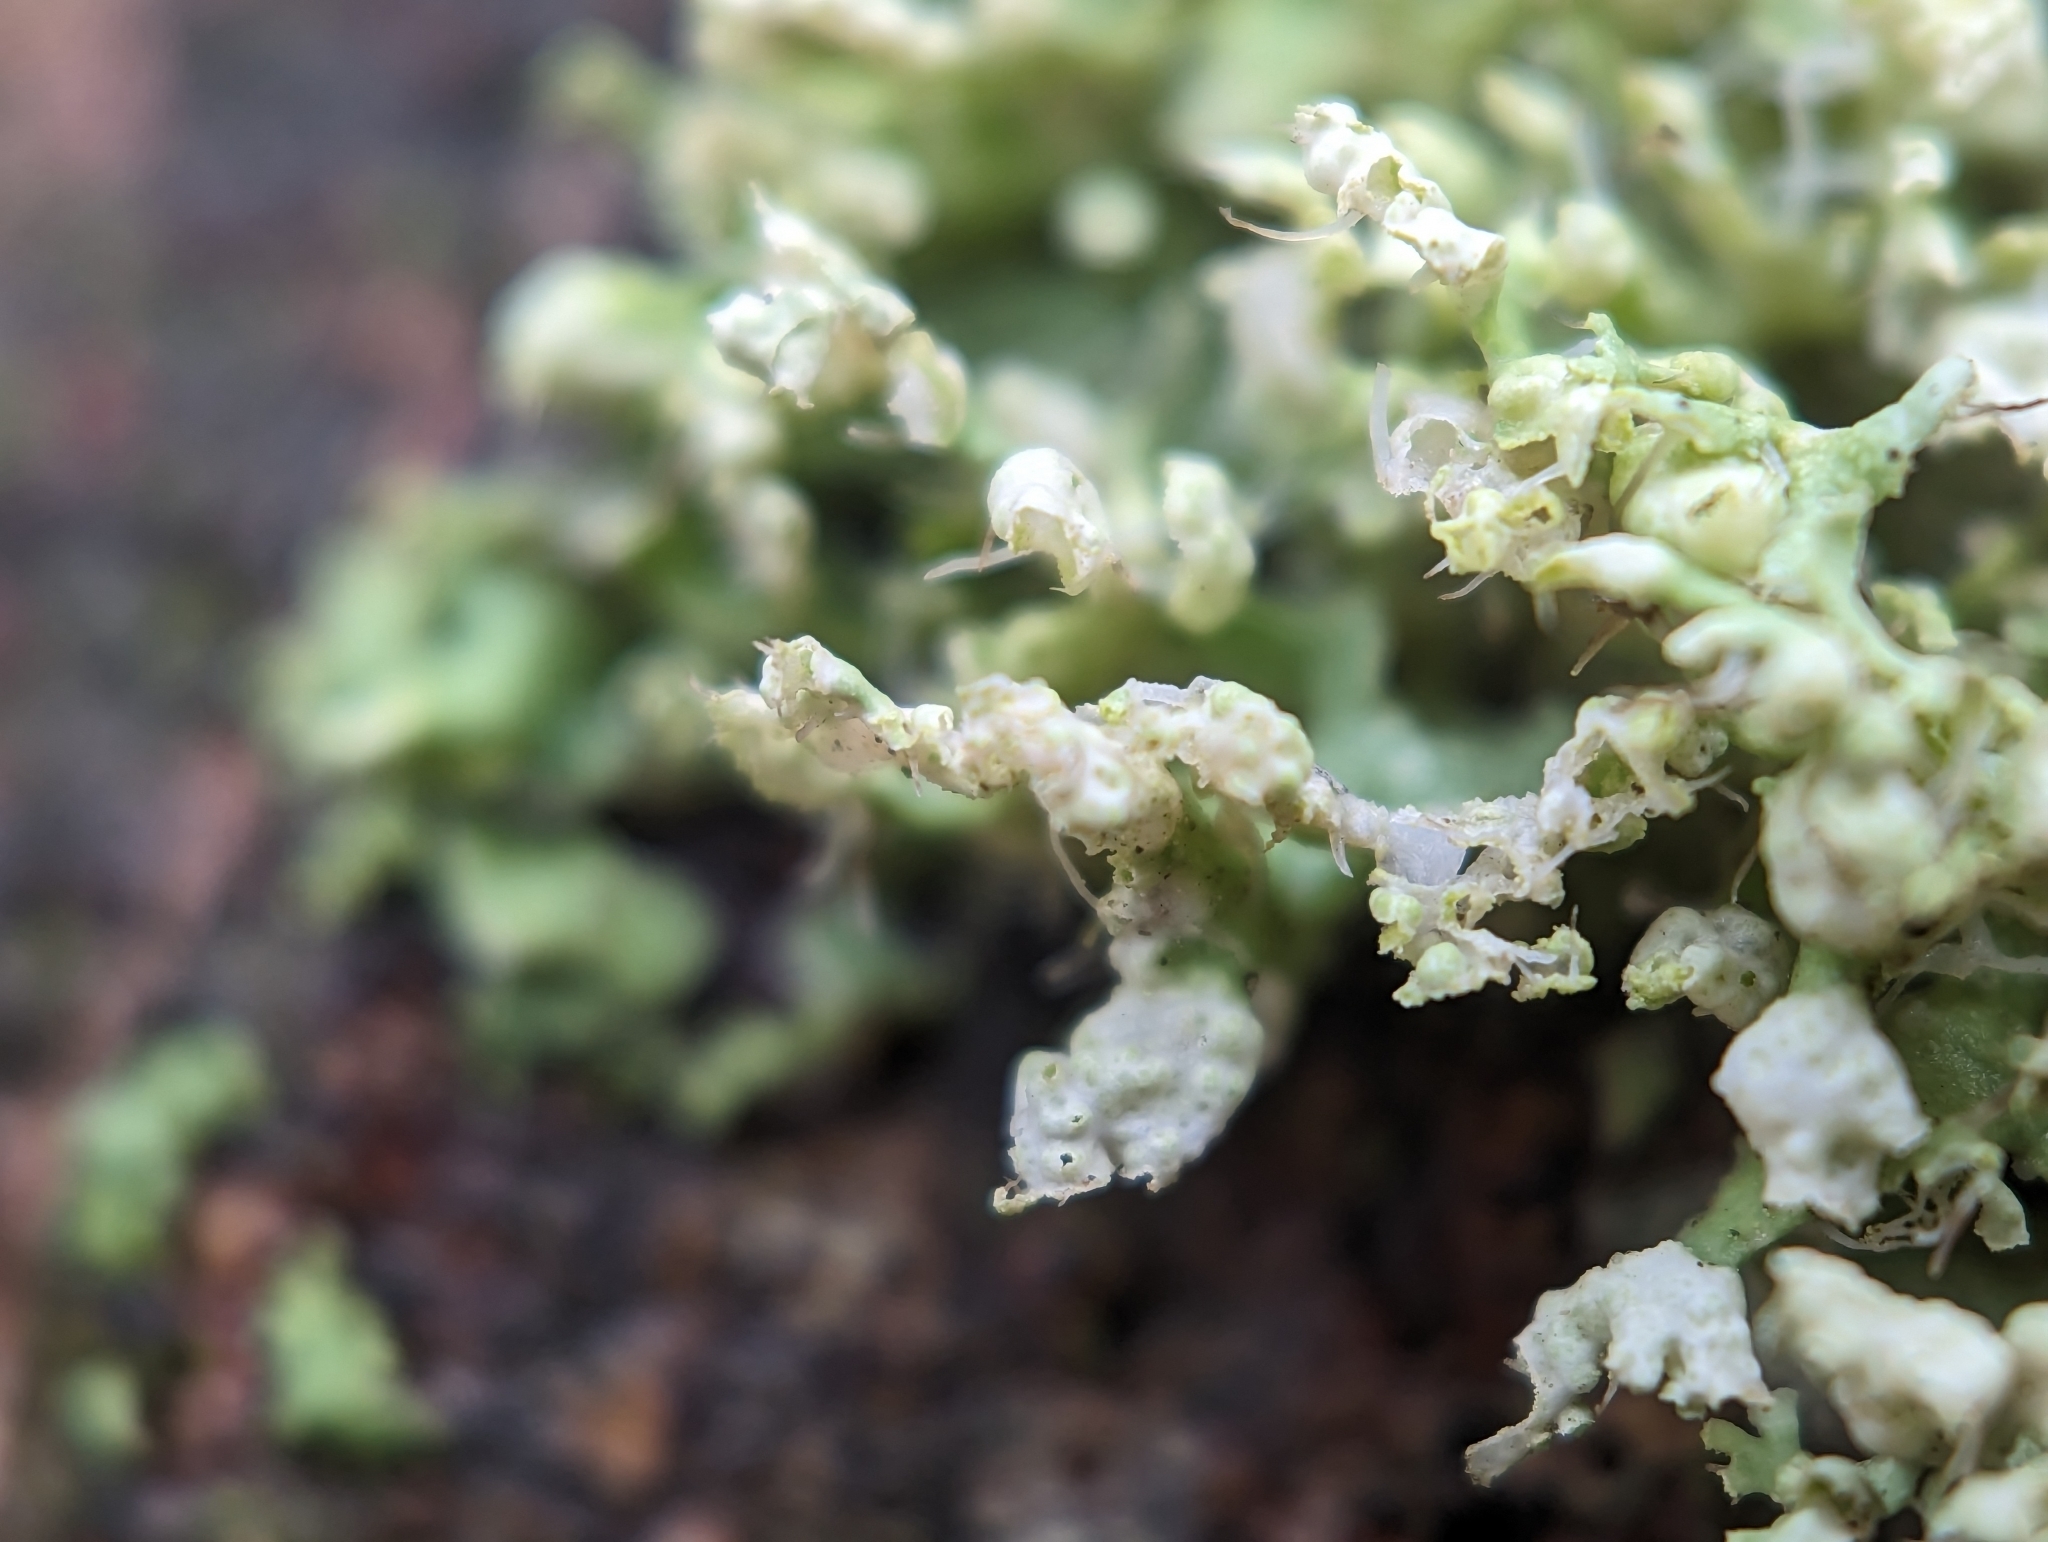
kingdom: Fungi
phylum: Ascomycota
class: Lecanoromycetes
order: Caliciales
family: Physciaceae
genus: Physcia
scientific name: Physcia adscendens
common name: Hooded rosette lichen
